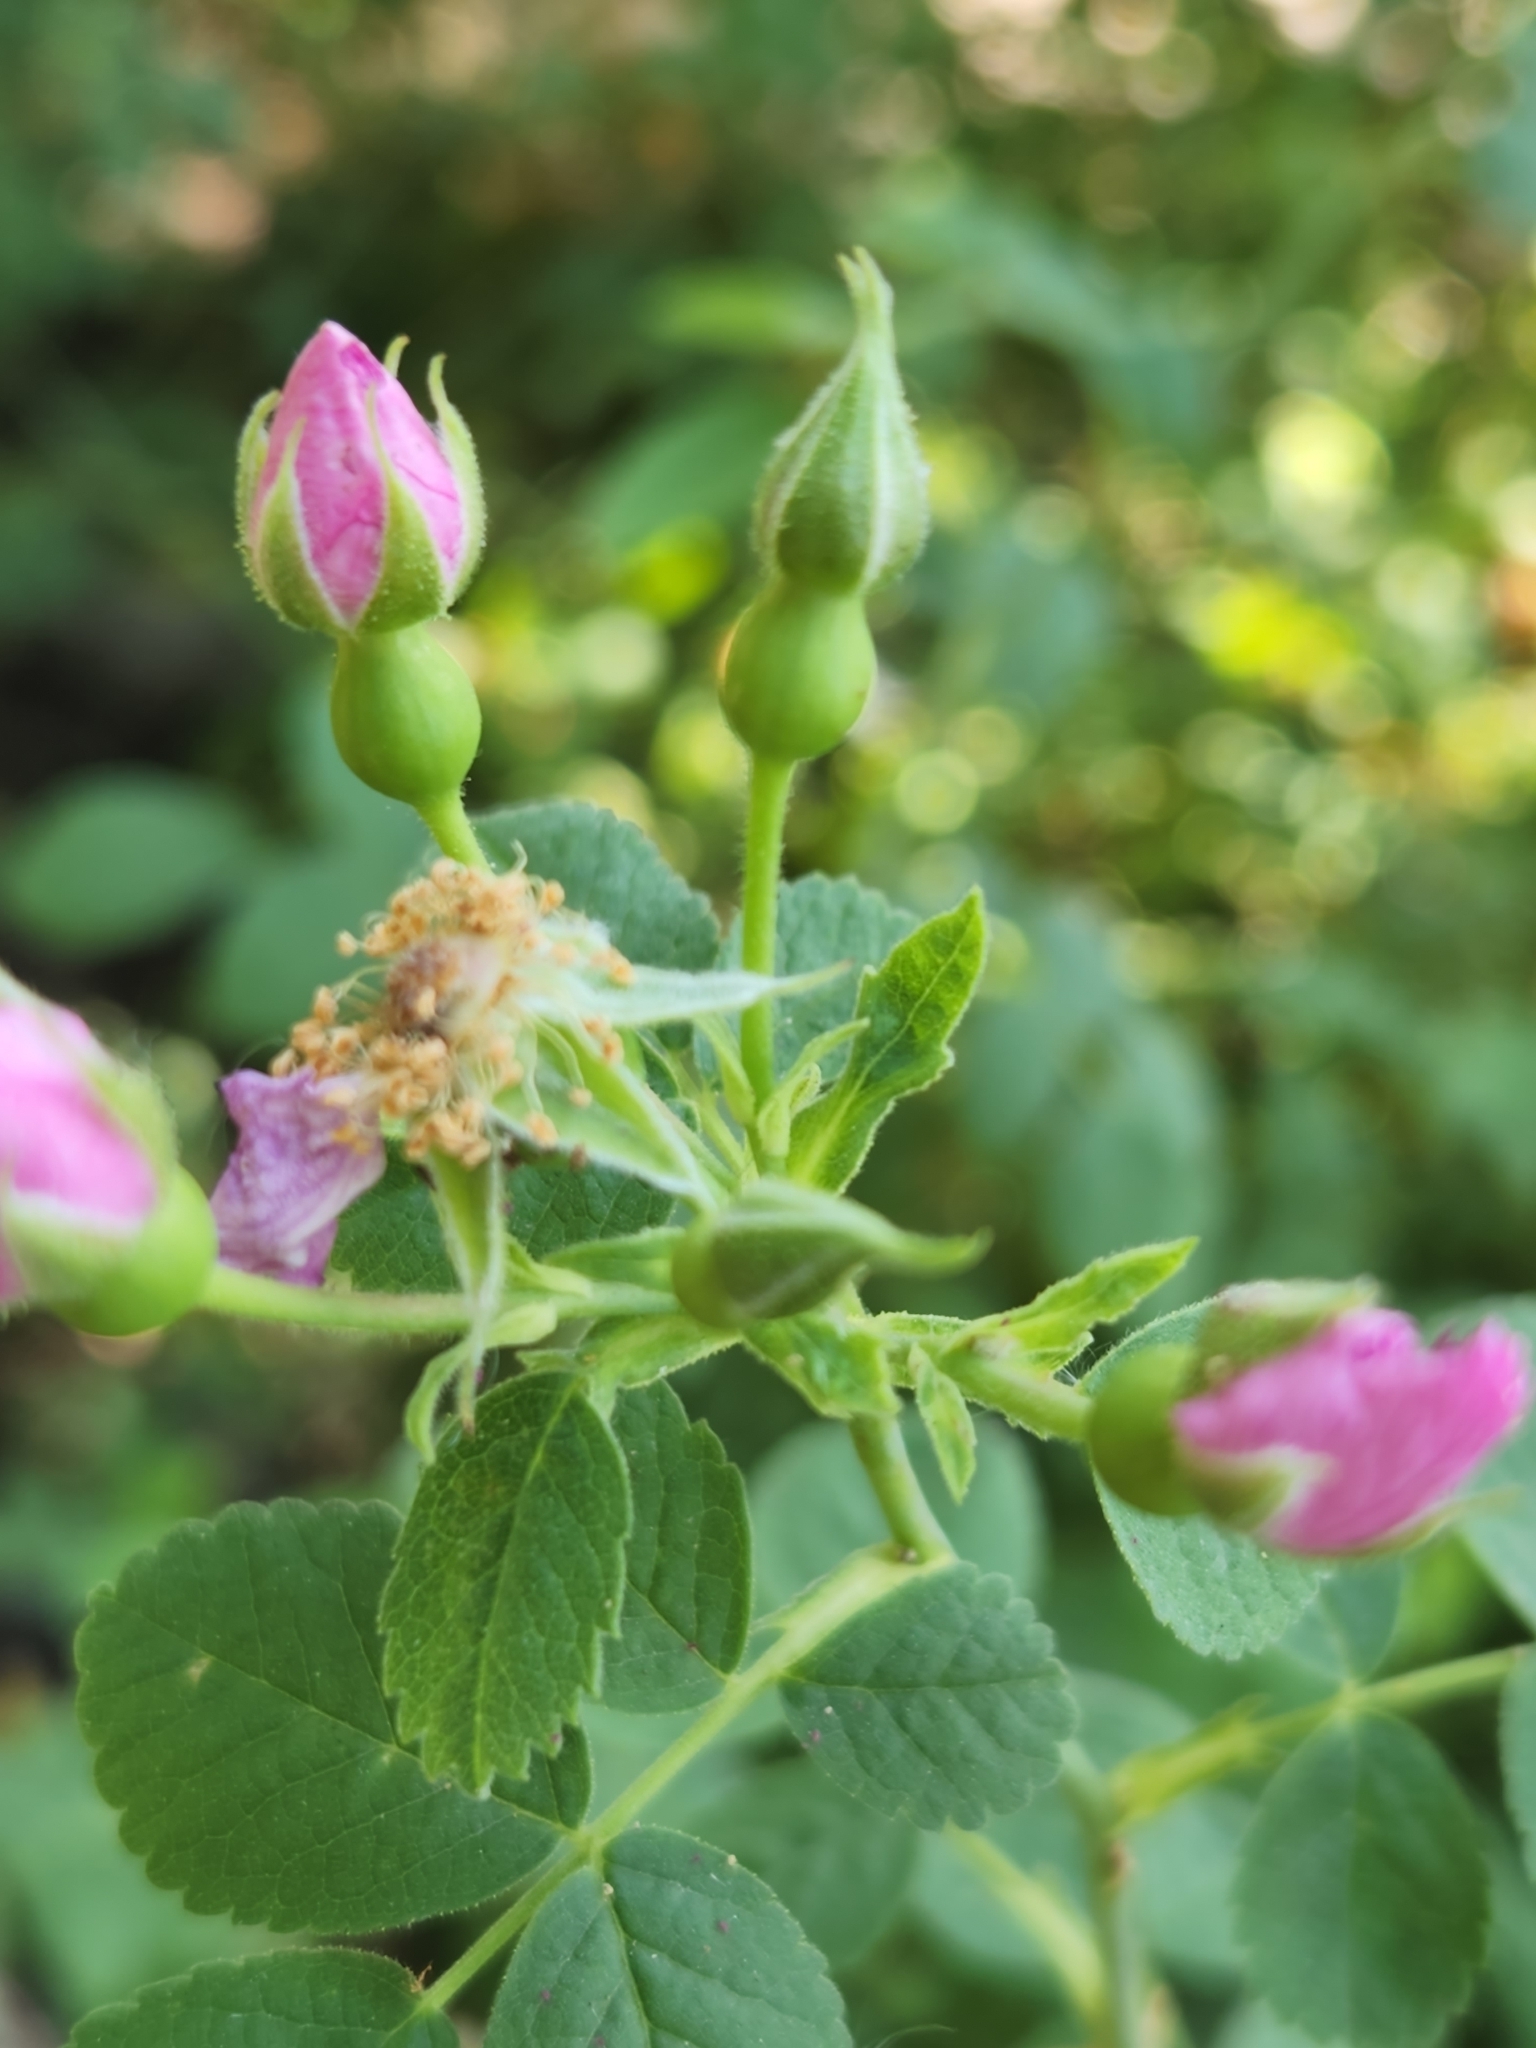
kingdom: Plantae
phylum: Tracheophyta
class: Magnoliopsida
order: Rosales
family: Rosaceae
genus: Rosa
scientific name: Rosa californica
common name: California rose
